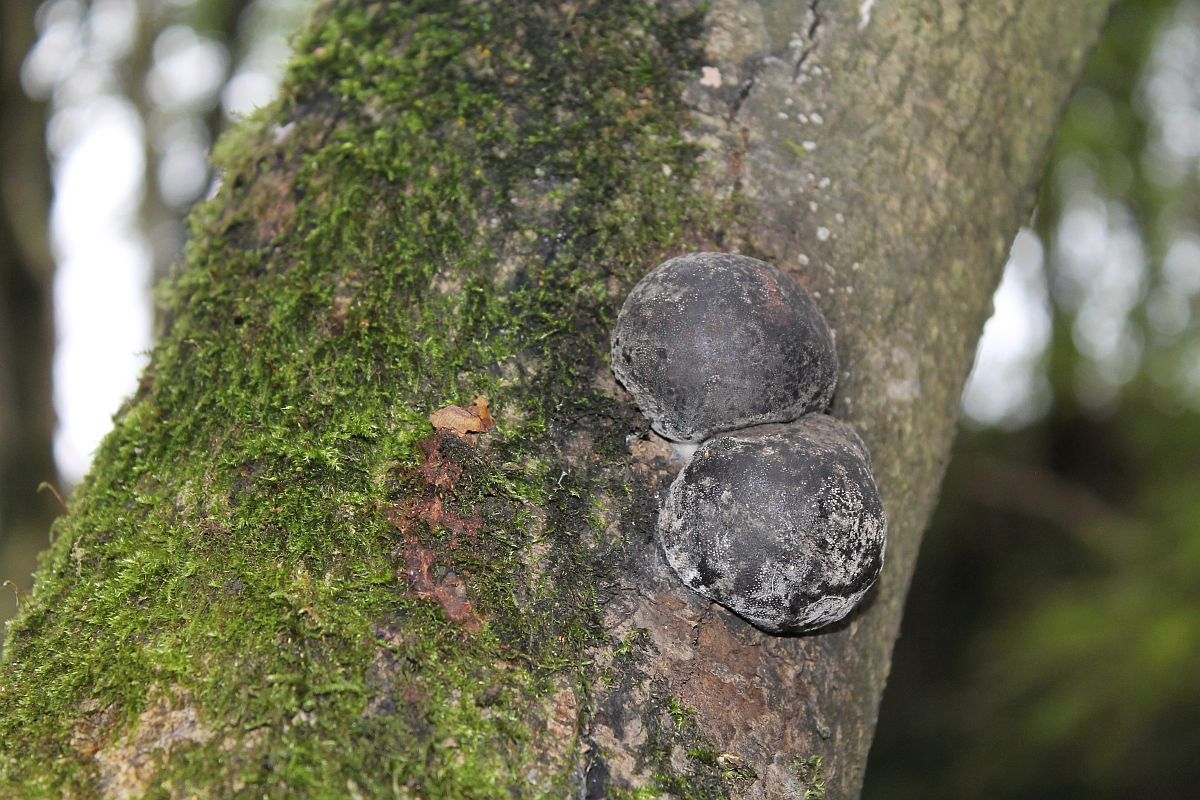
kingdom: Fungi
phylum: Ascomycota
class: Sordariomycetes
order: Xylariales
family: Hypoxylaceae
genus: Daldinia
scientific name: Daldinia concentrica
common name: Cramp balls
